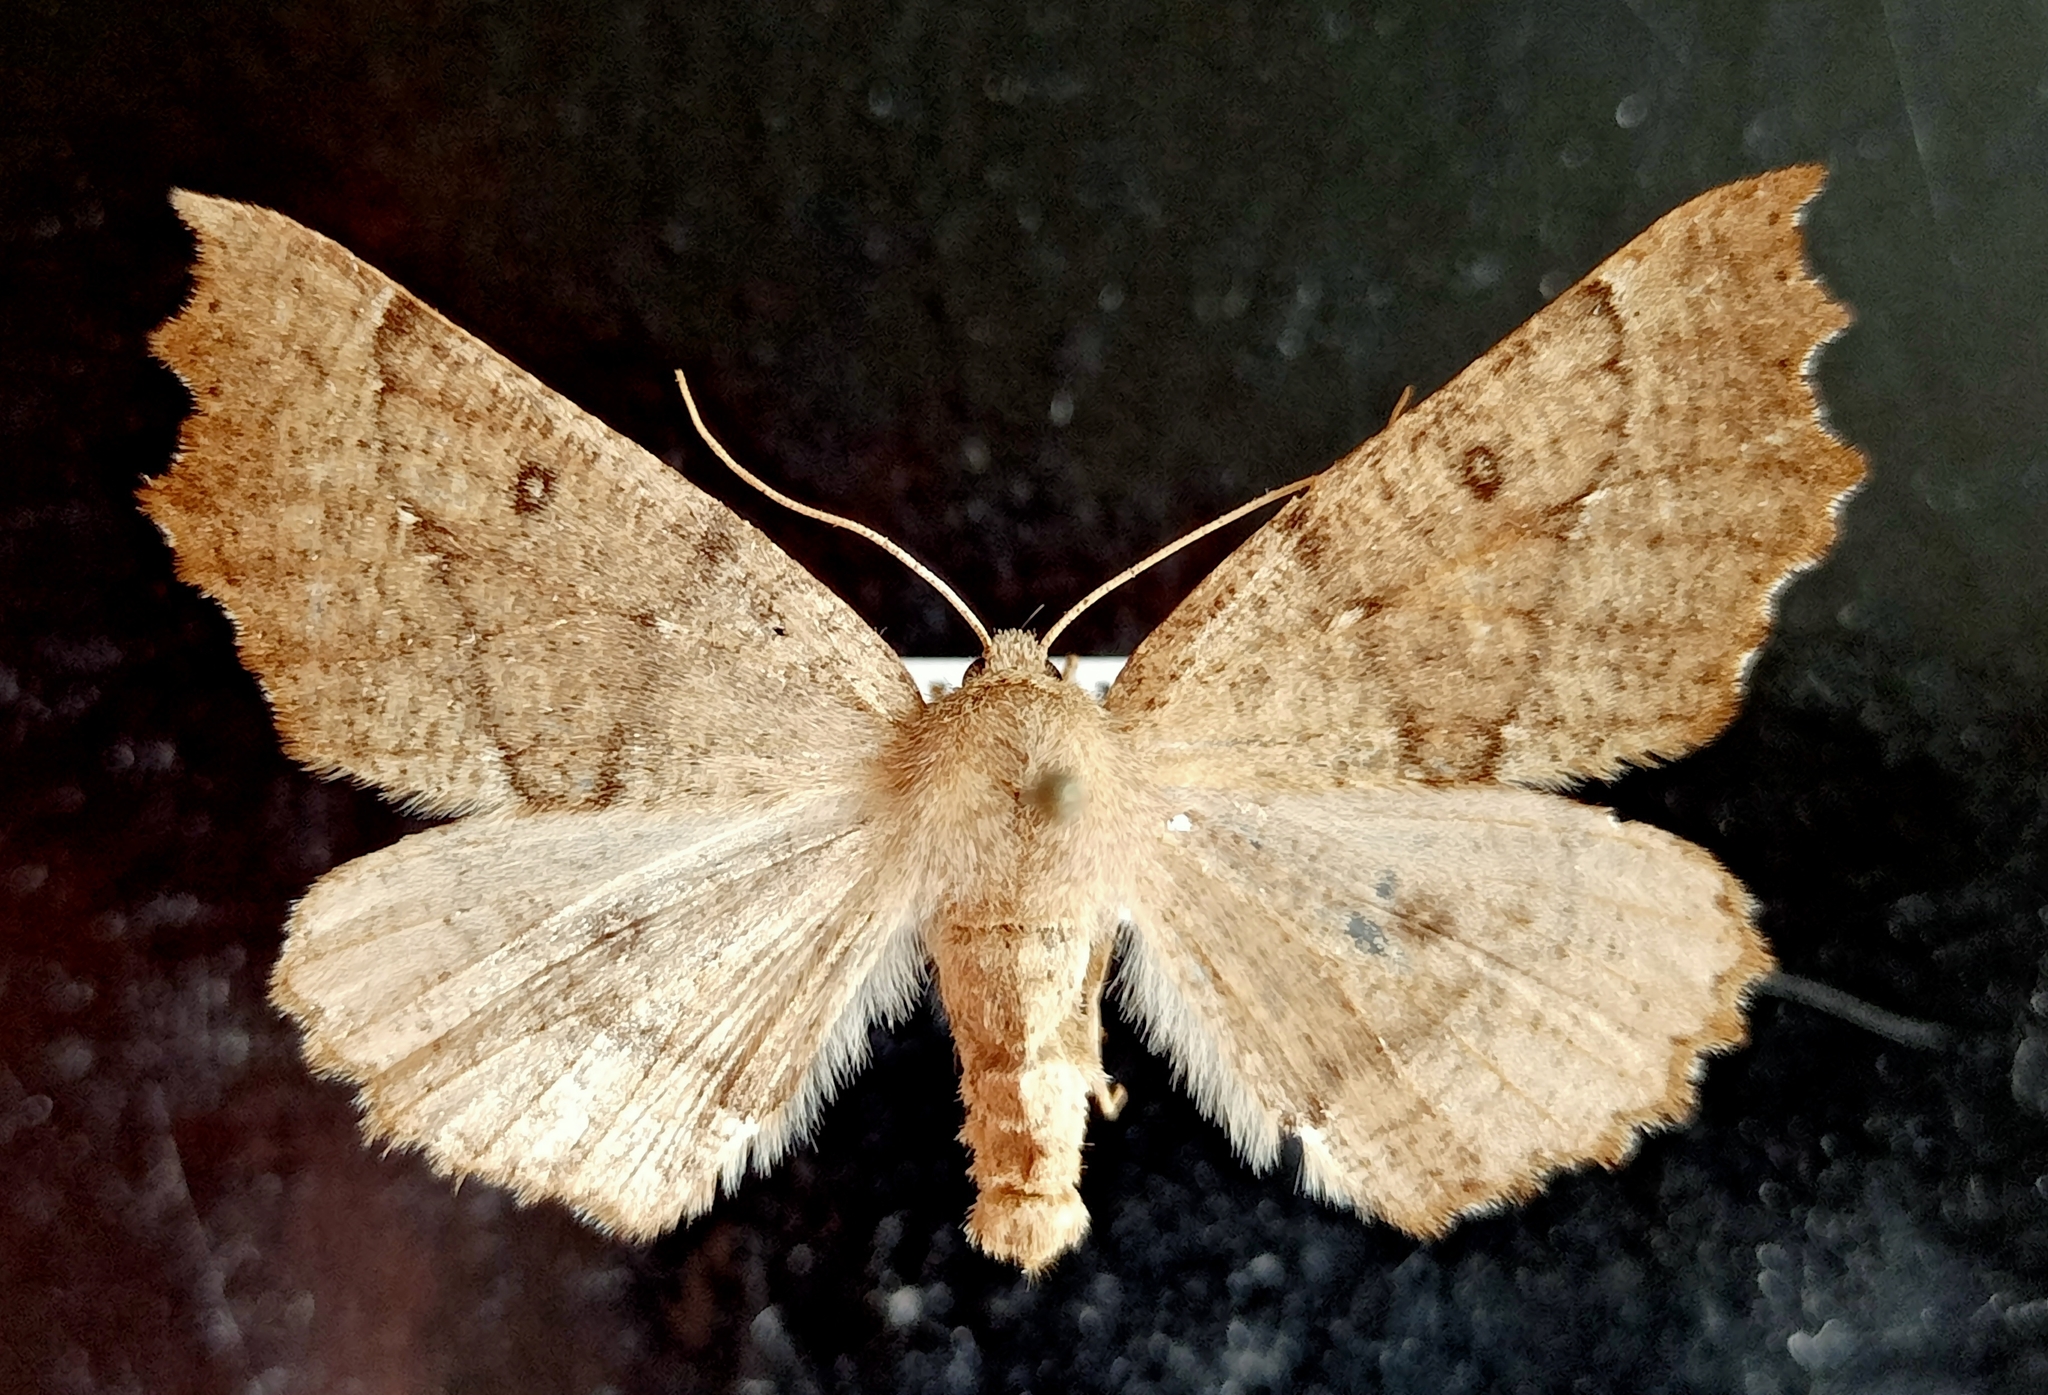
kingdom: Animalia
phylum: Arthropoda
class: Insecta
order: Lepidoptera
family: Geometridae
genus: Odontopera
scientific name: Odontopera bidentata
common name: Scalloped hazel
